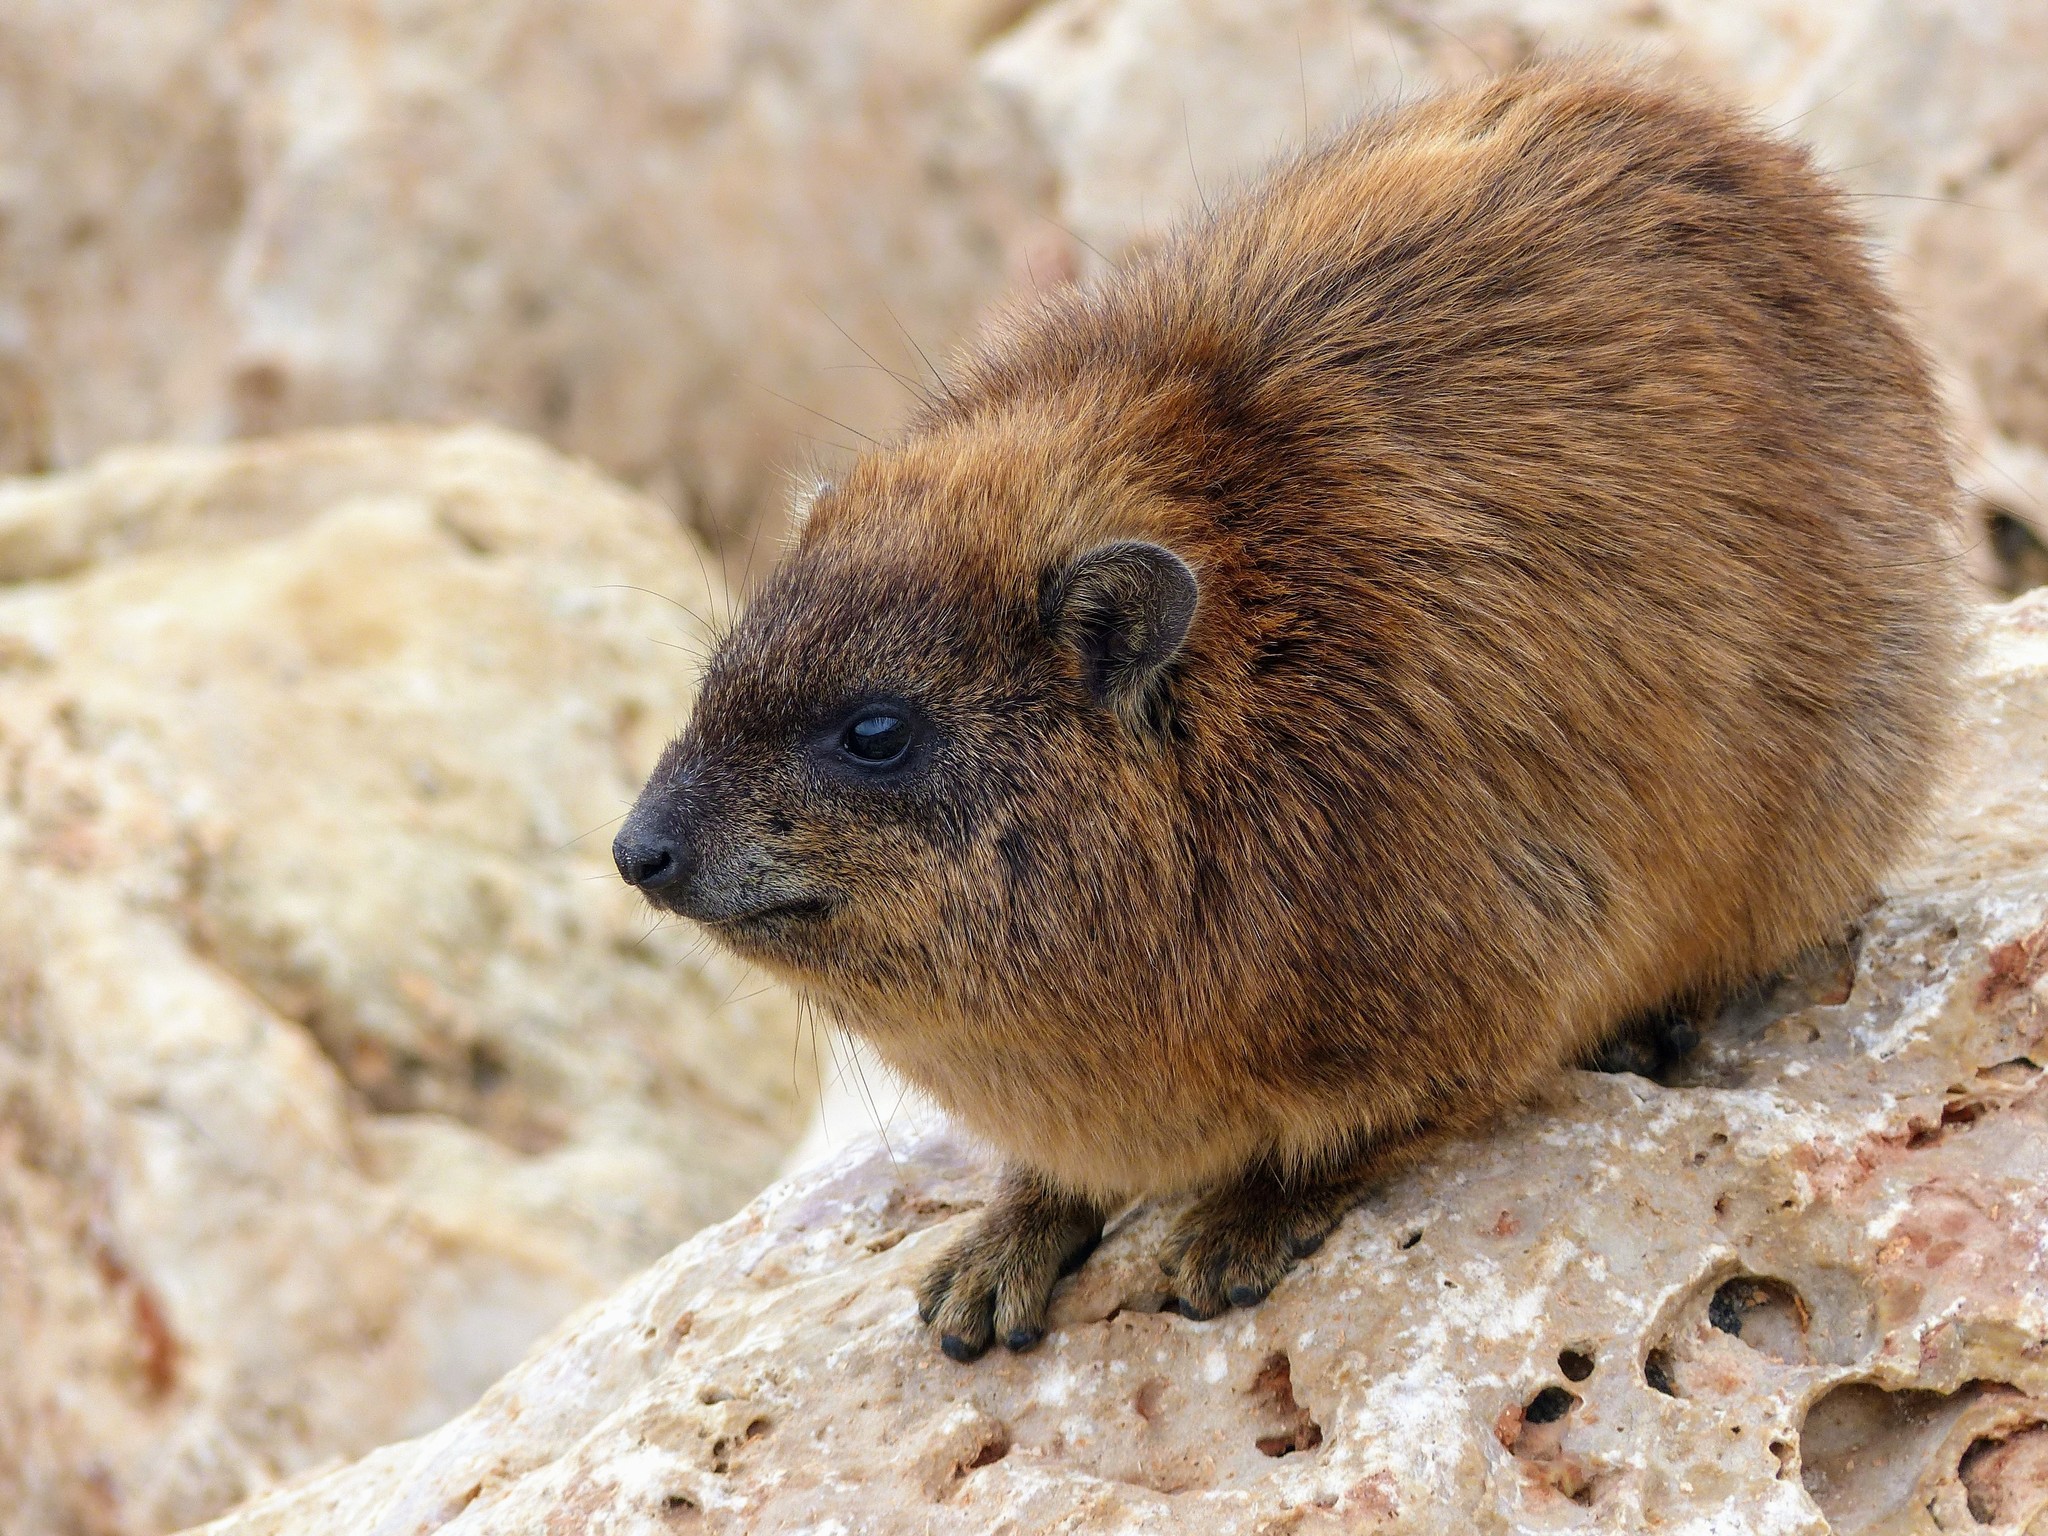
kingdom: Animalia
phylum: Chordata
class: Mammalia
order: Hyracoidea
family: Procaviidae
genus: Procavia
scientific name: Procavia capensis
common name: Rock hyrax
